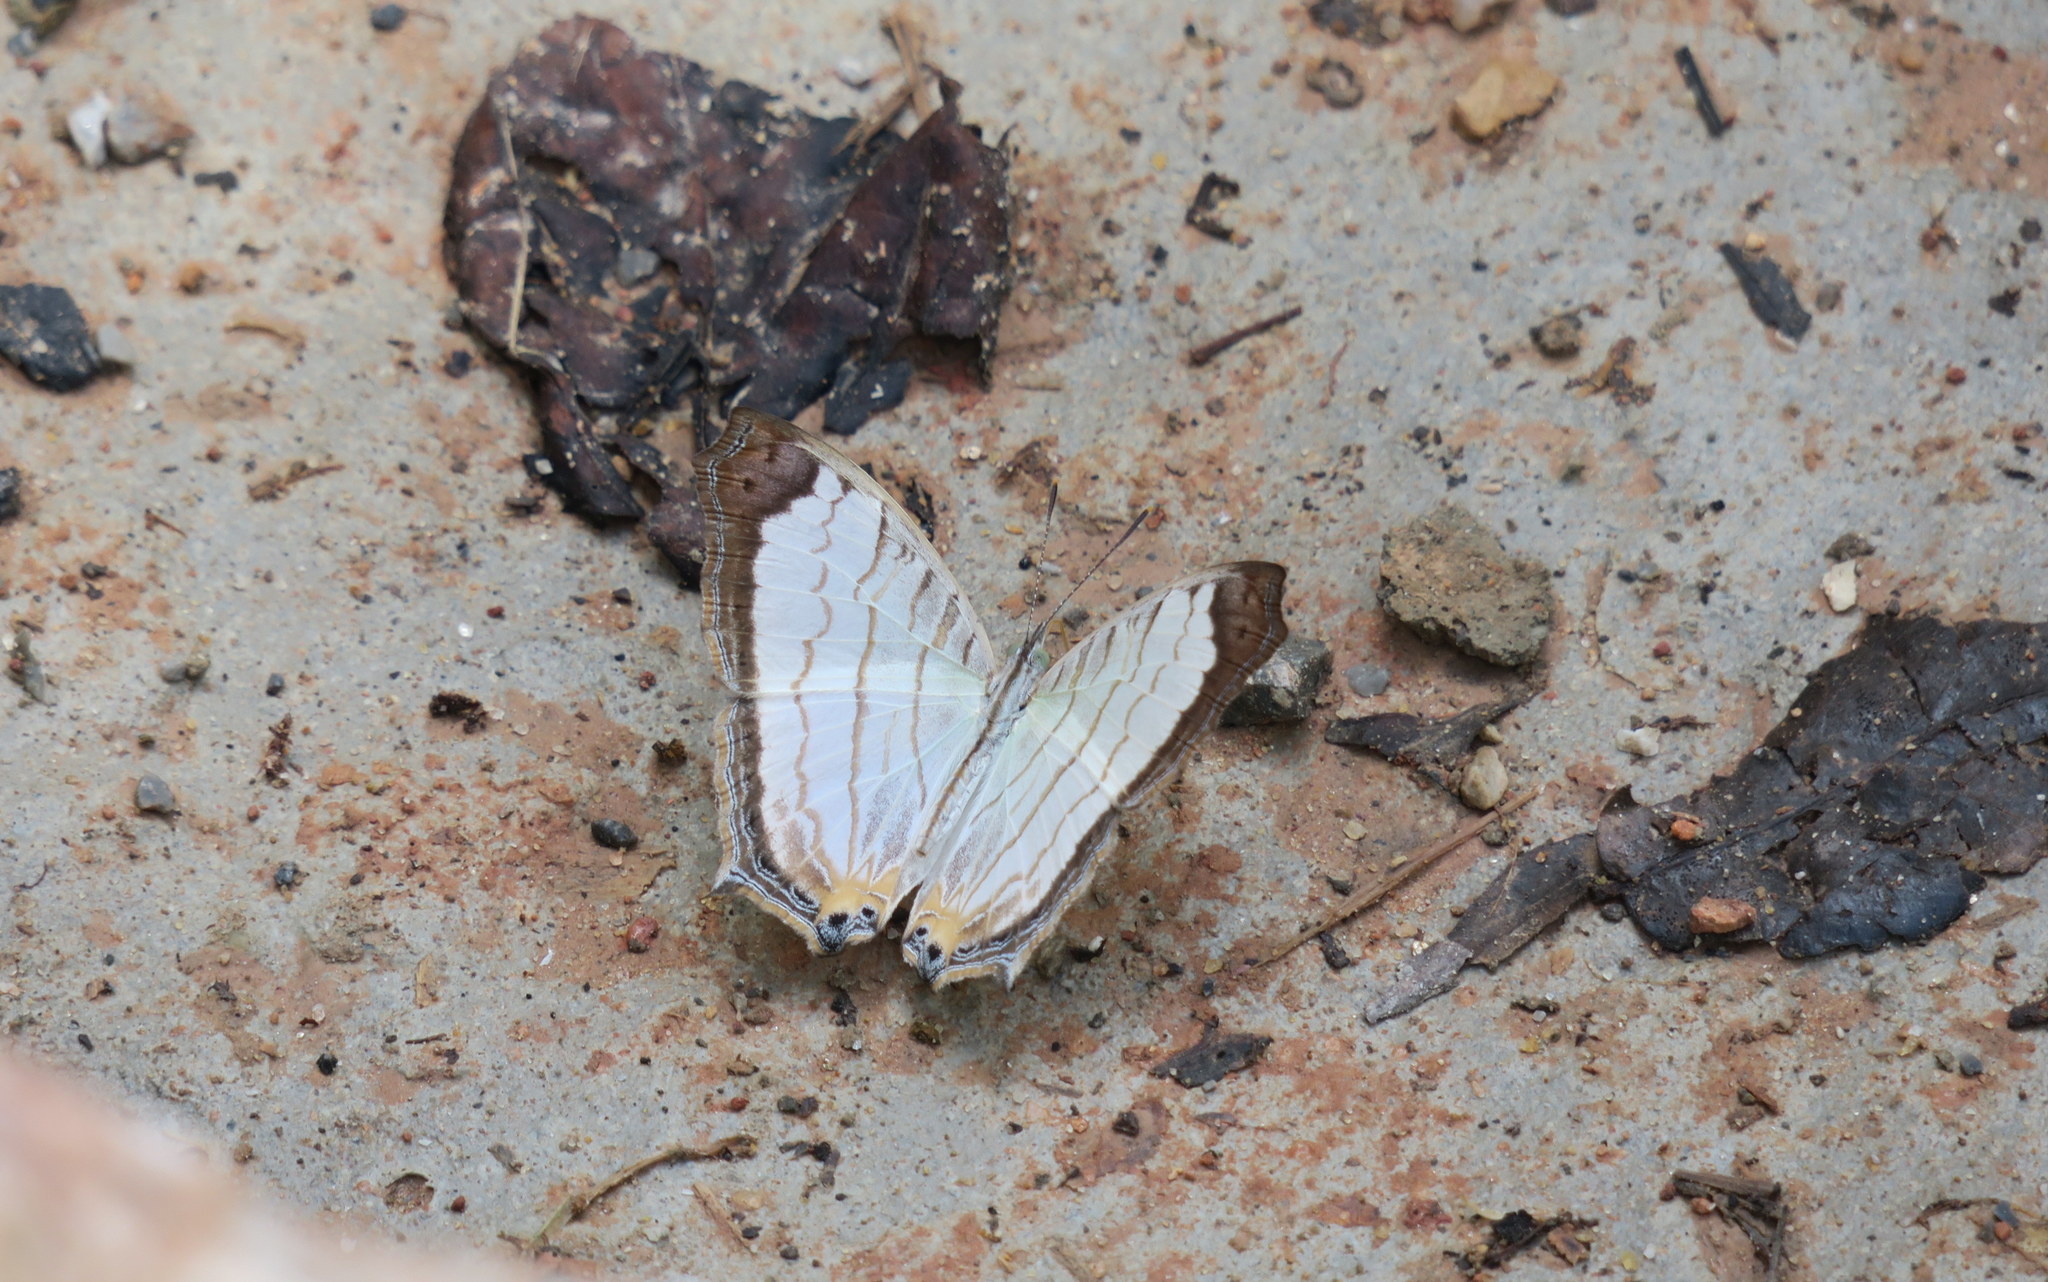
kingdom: Animalia
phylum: Arthropoda
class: Insecta
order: Lepidoptera
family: Nymphalidae
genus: Cyrestis
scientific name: Cyrestis themire
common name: Little mapwing
